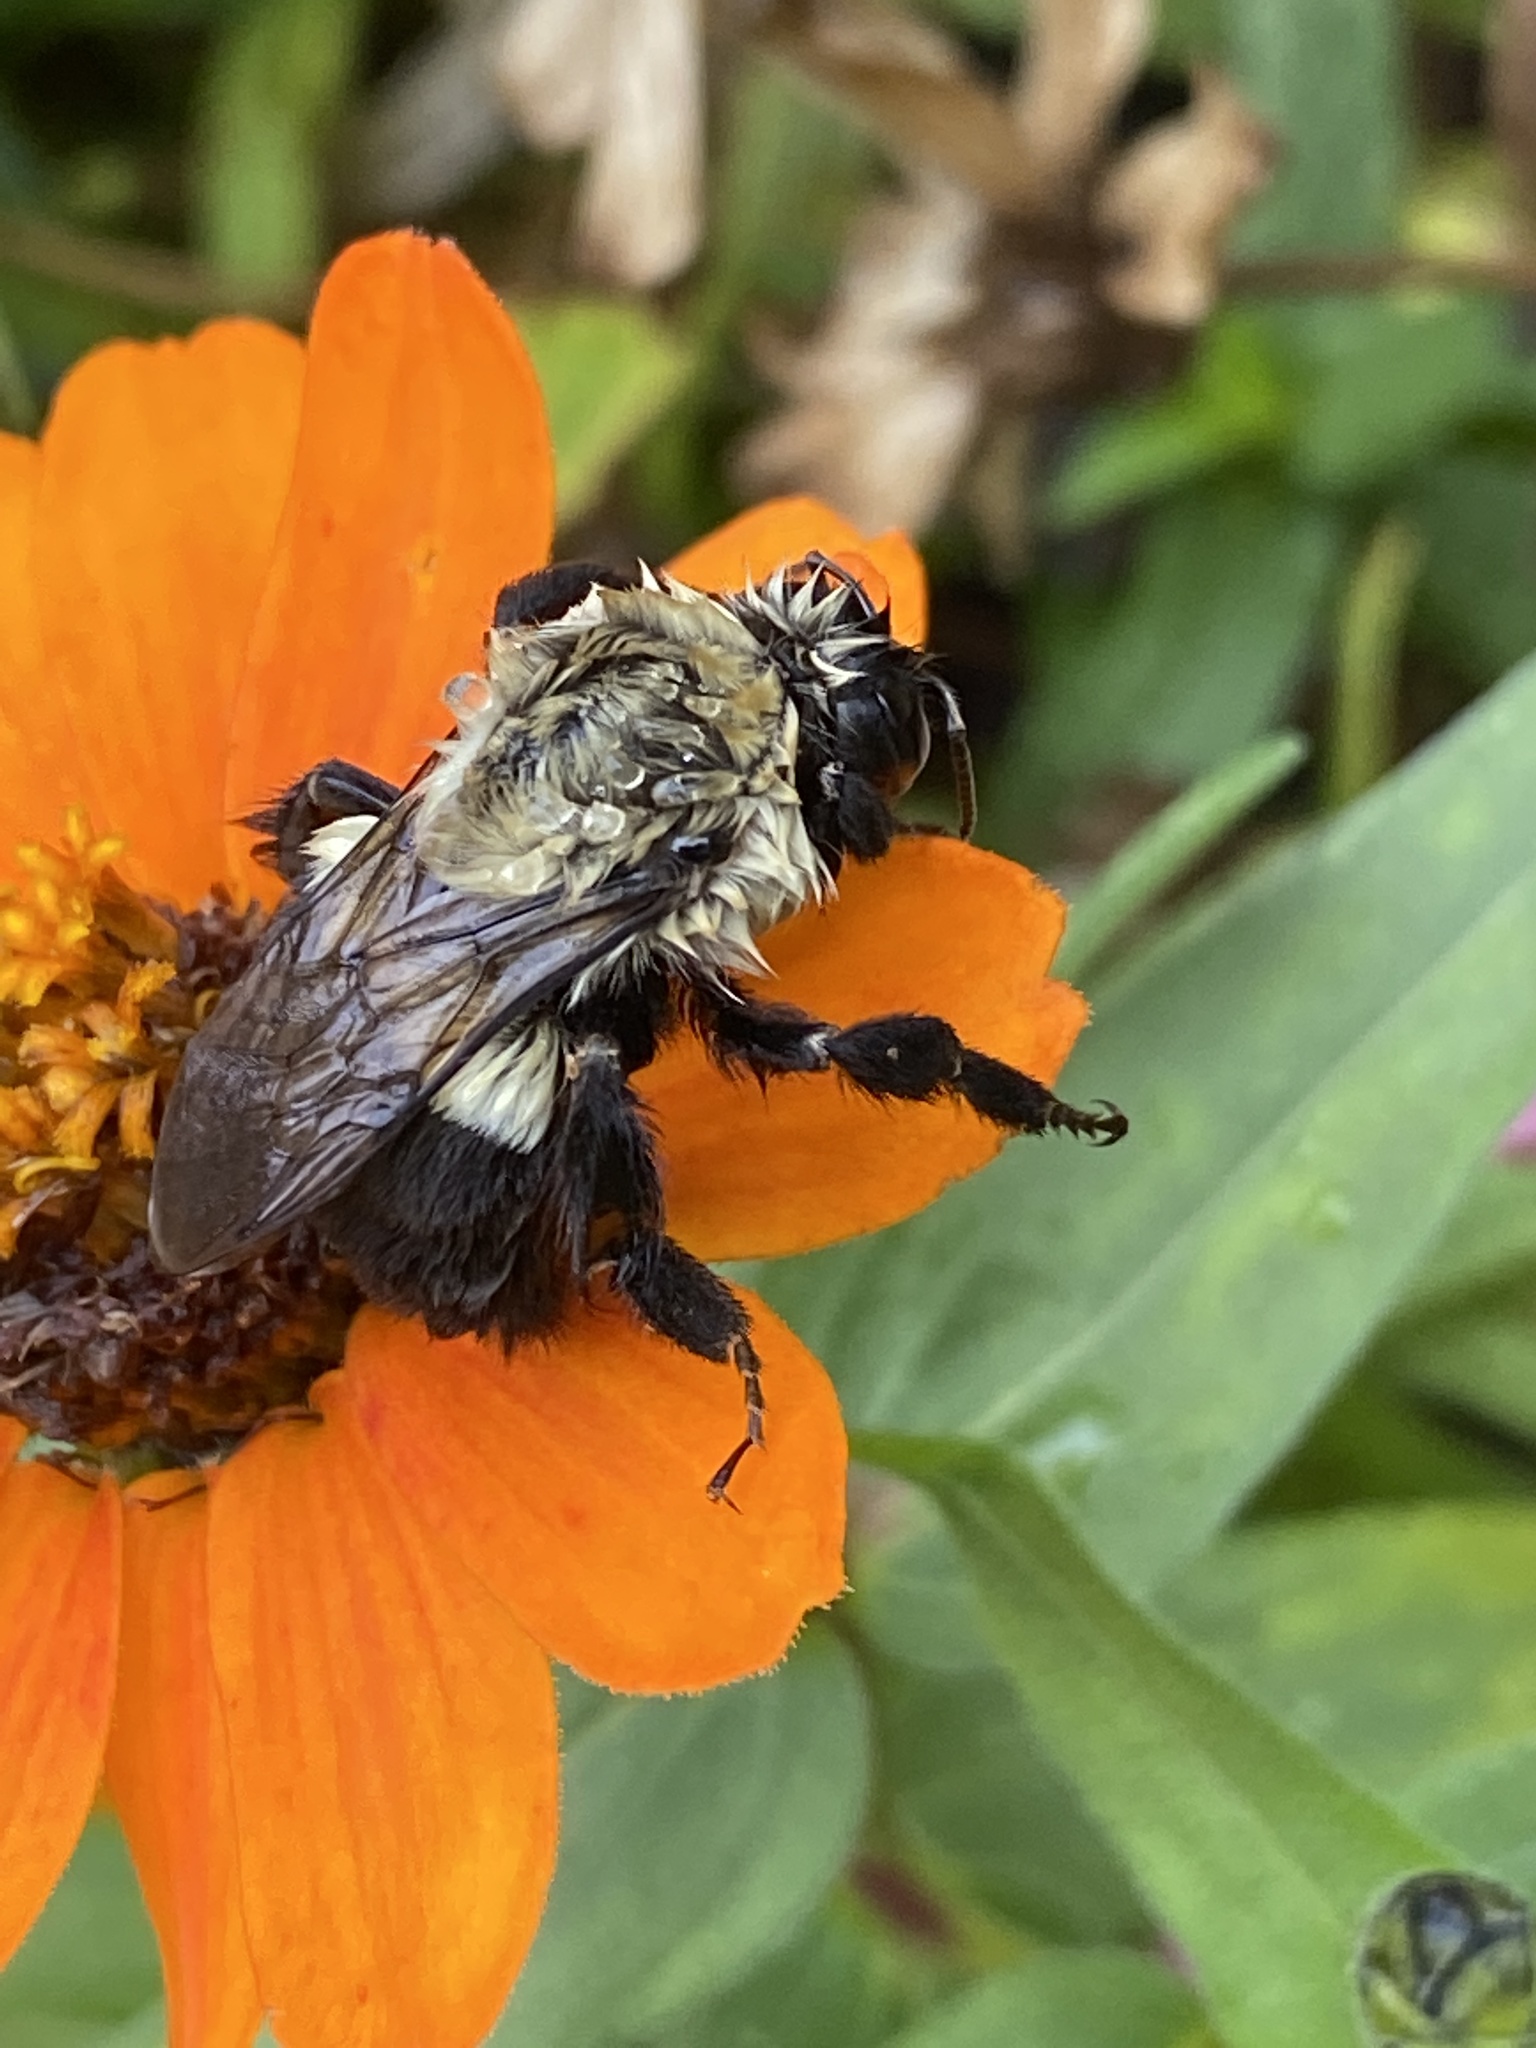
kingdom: Animalia
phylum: Arthropoda
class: Insecta
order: Hymenoptera
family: Apidae
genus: Bombus
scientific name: Bombus impatiens
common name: Common eastern bumble bee
